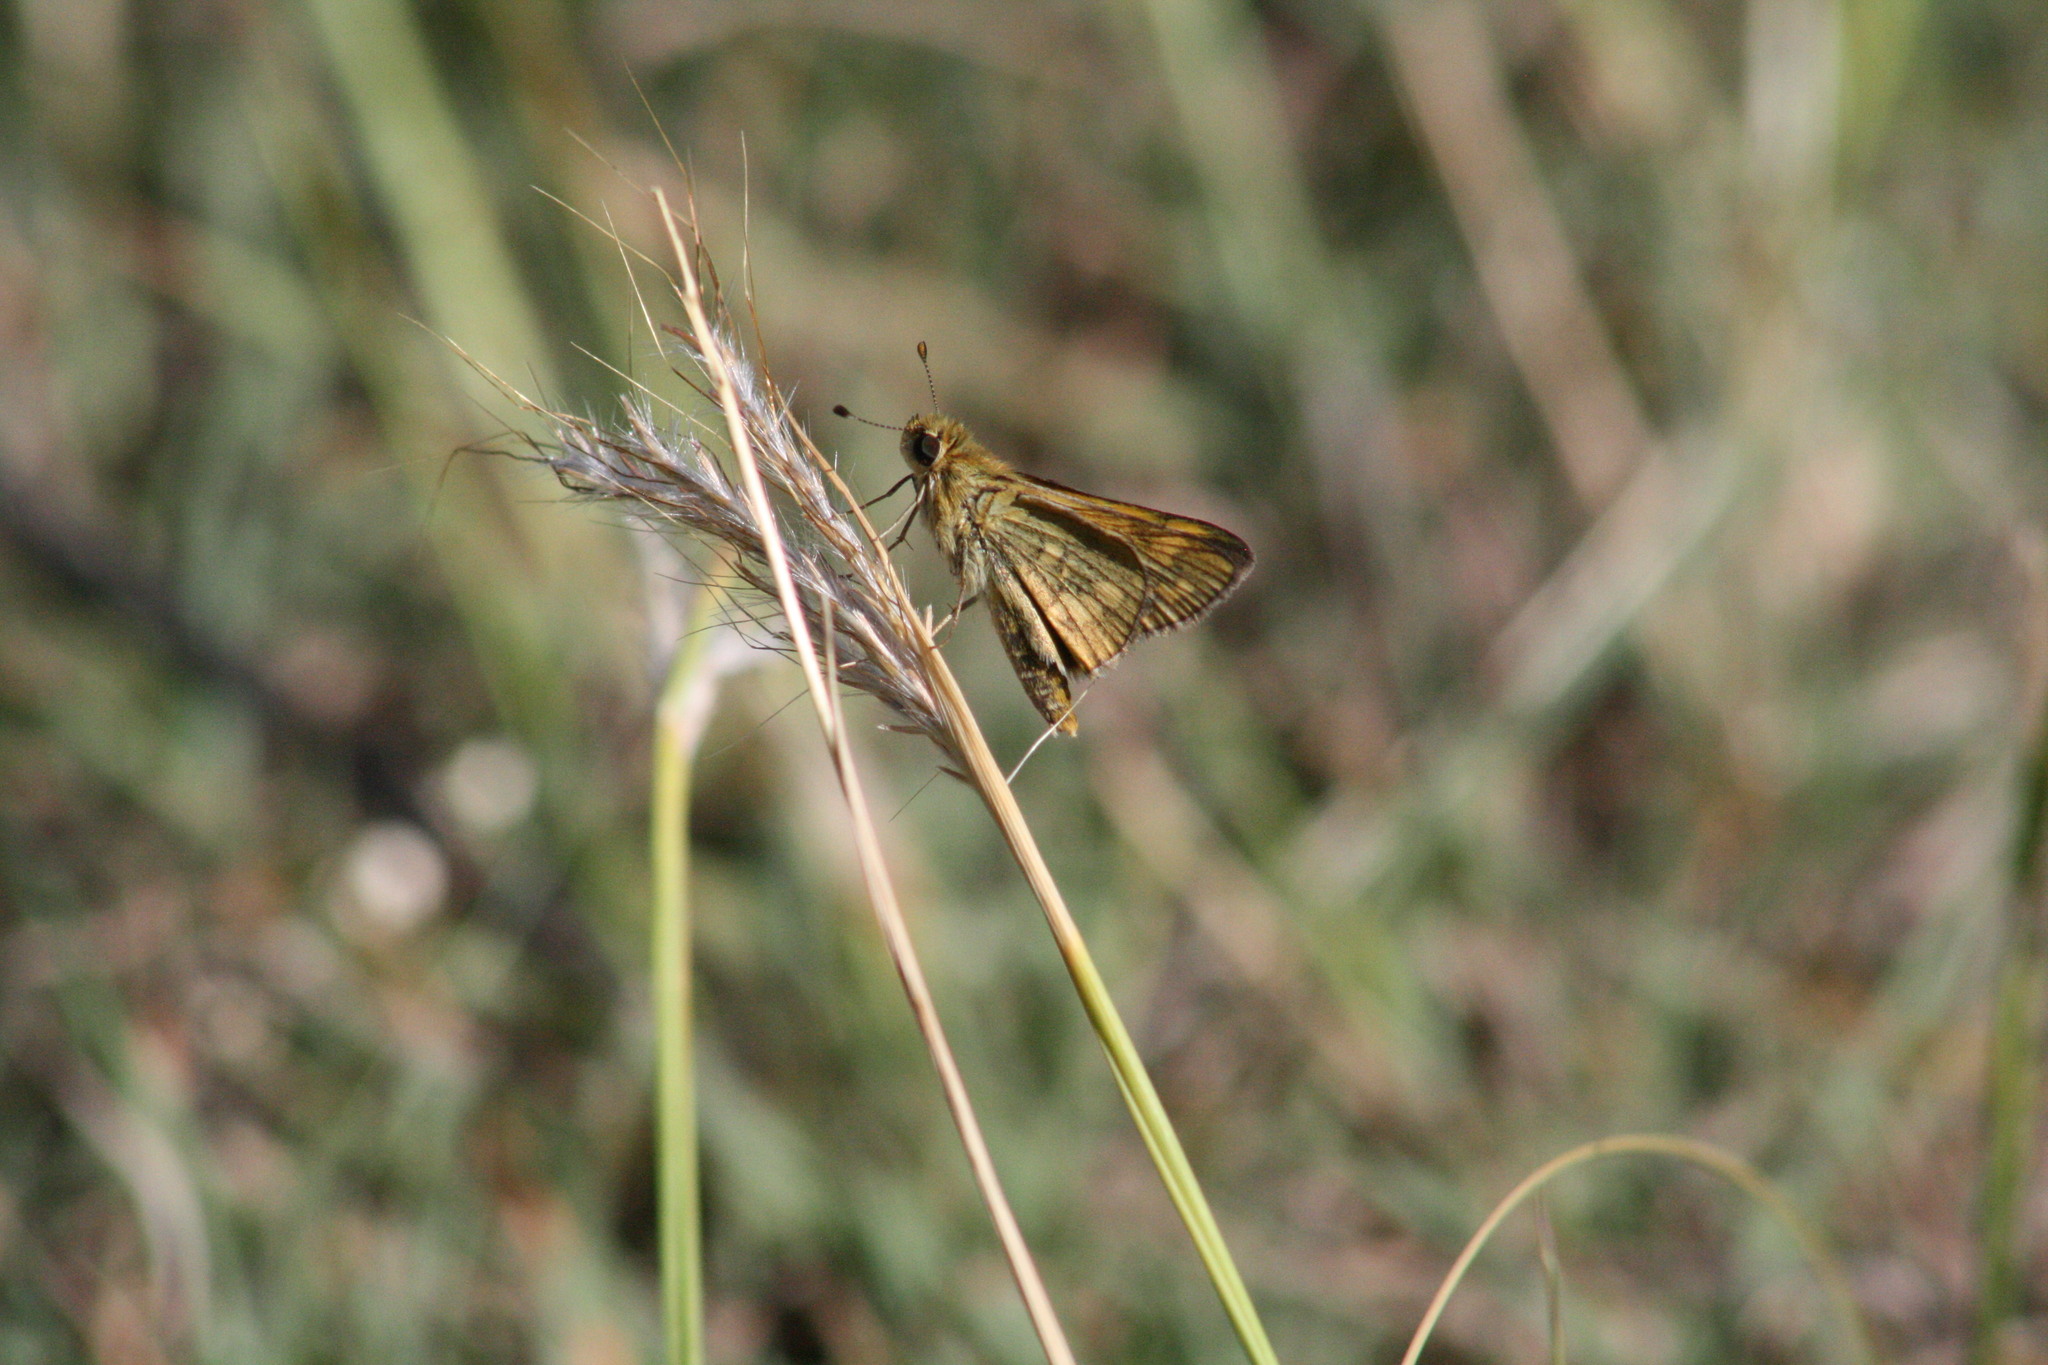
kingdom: Animalia
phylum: Arthropoda
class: Insecta
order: Lepidoptera
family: Hesperiidae
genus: Taractrocera
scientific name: Taractrocera ina
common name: Ina grass-dart
